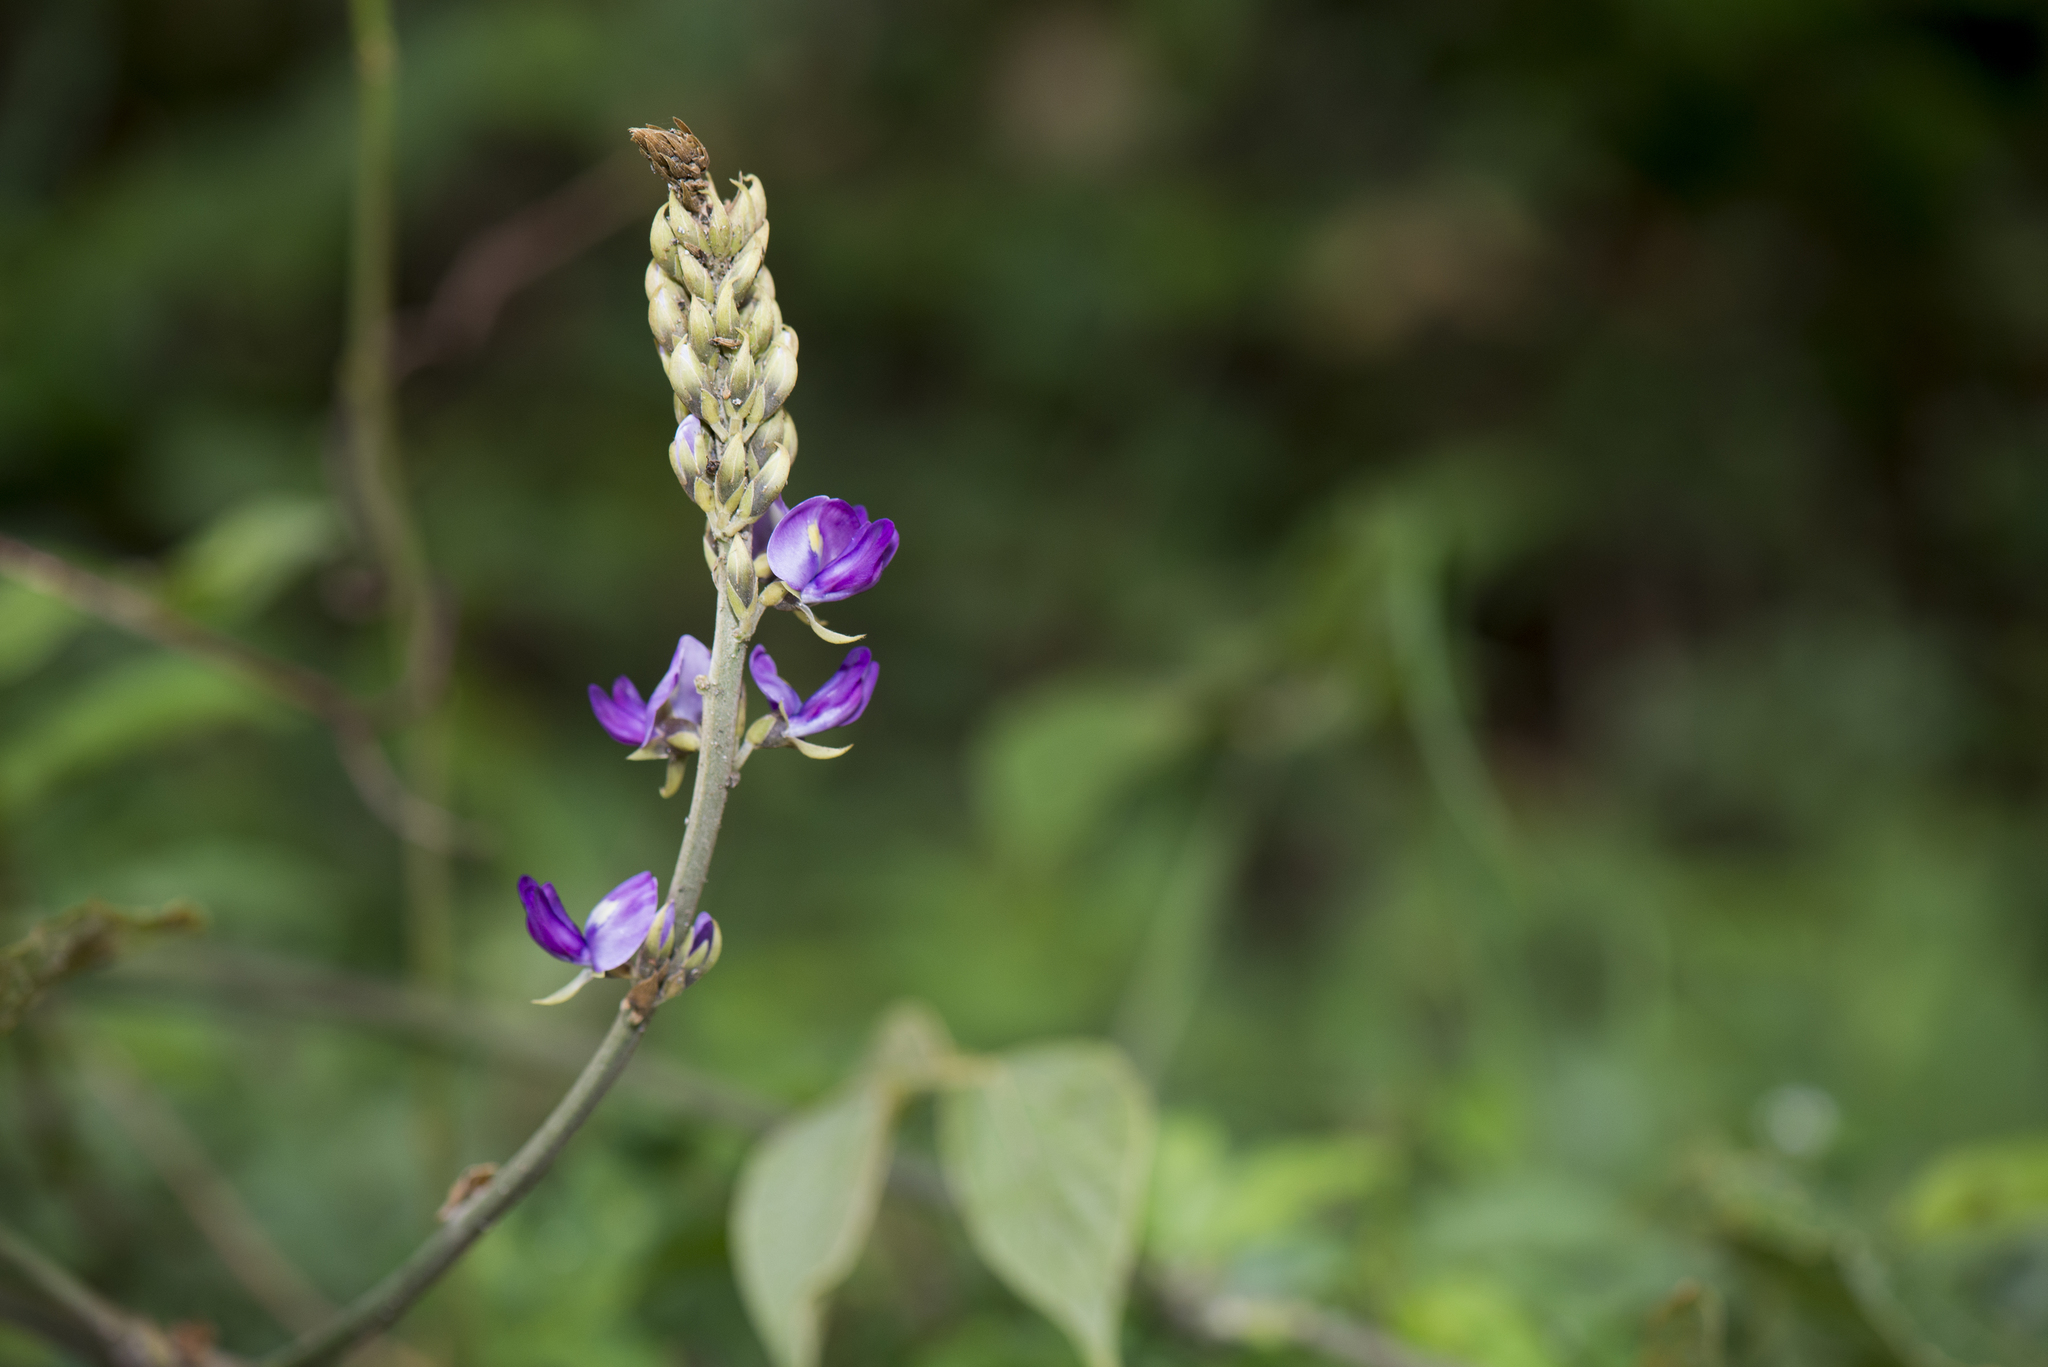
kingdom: Plantae
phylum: Tracheophyta
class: Magnoliopsida
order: Fabales
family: Fabaceae
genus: Pueraria
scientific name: Pueraria montana
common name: Kudzu
